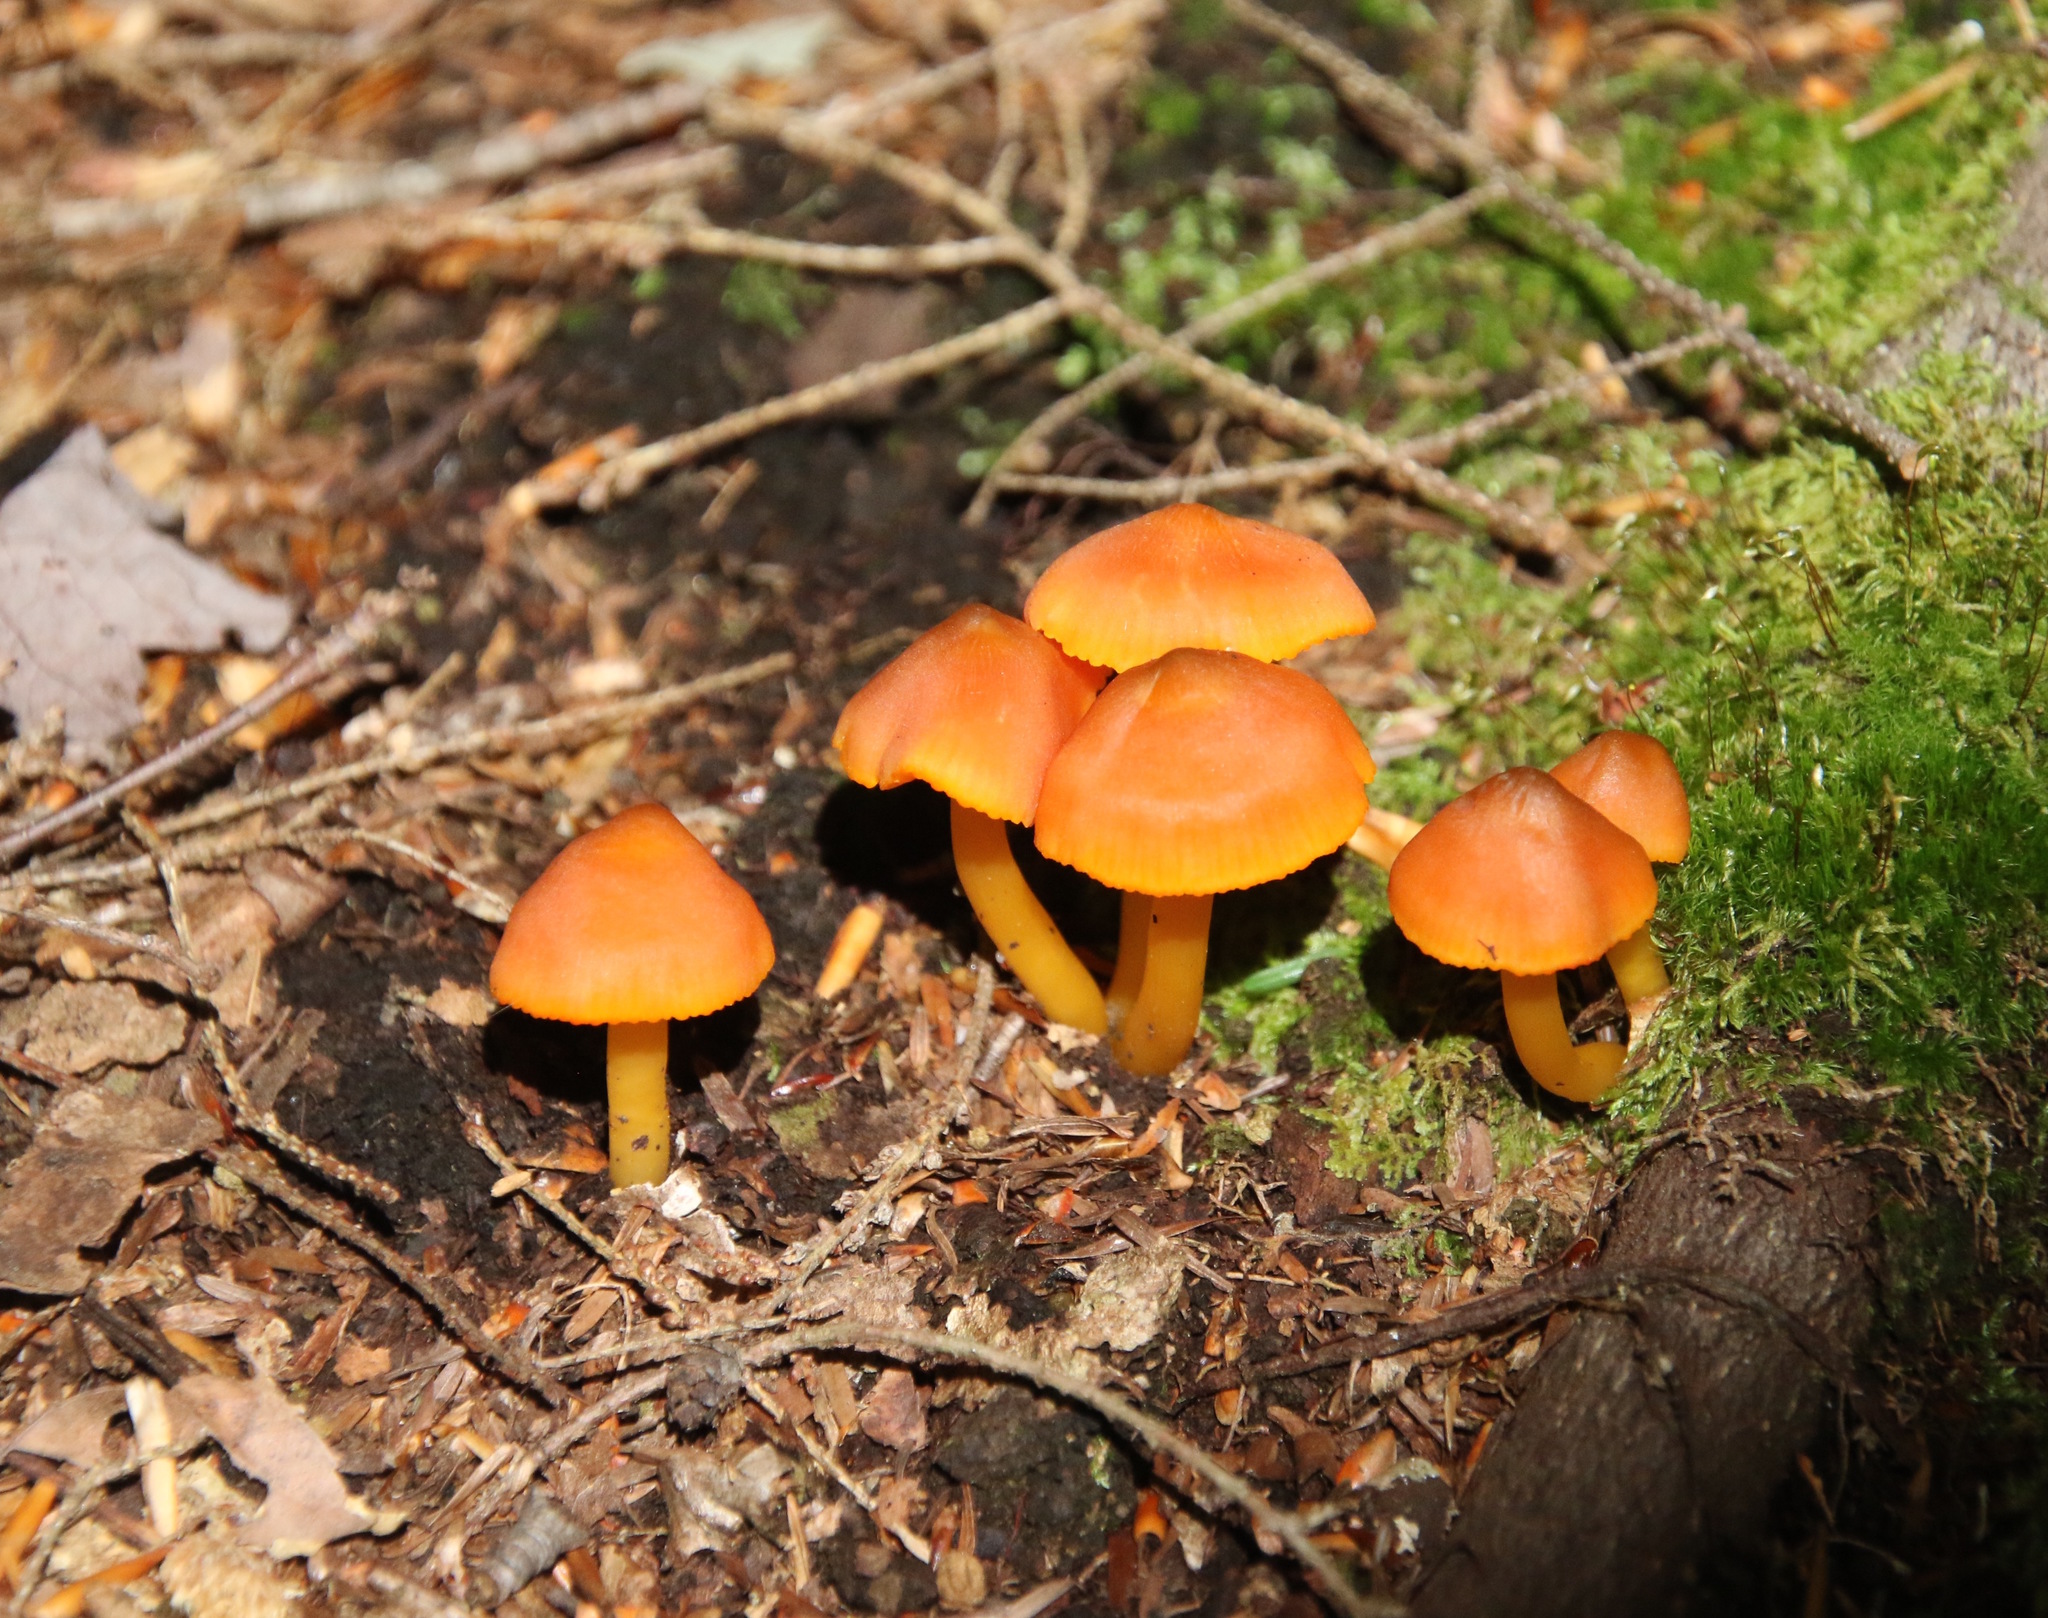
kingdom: Fungi
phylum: Basidiomycota
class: Agaricomycetes
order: Agaricales
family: Hygrophoraceae
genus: Humidicutis
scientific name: Humidicutis marginata
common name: Orange gilled waxcap
